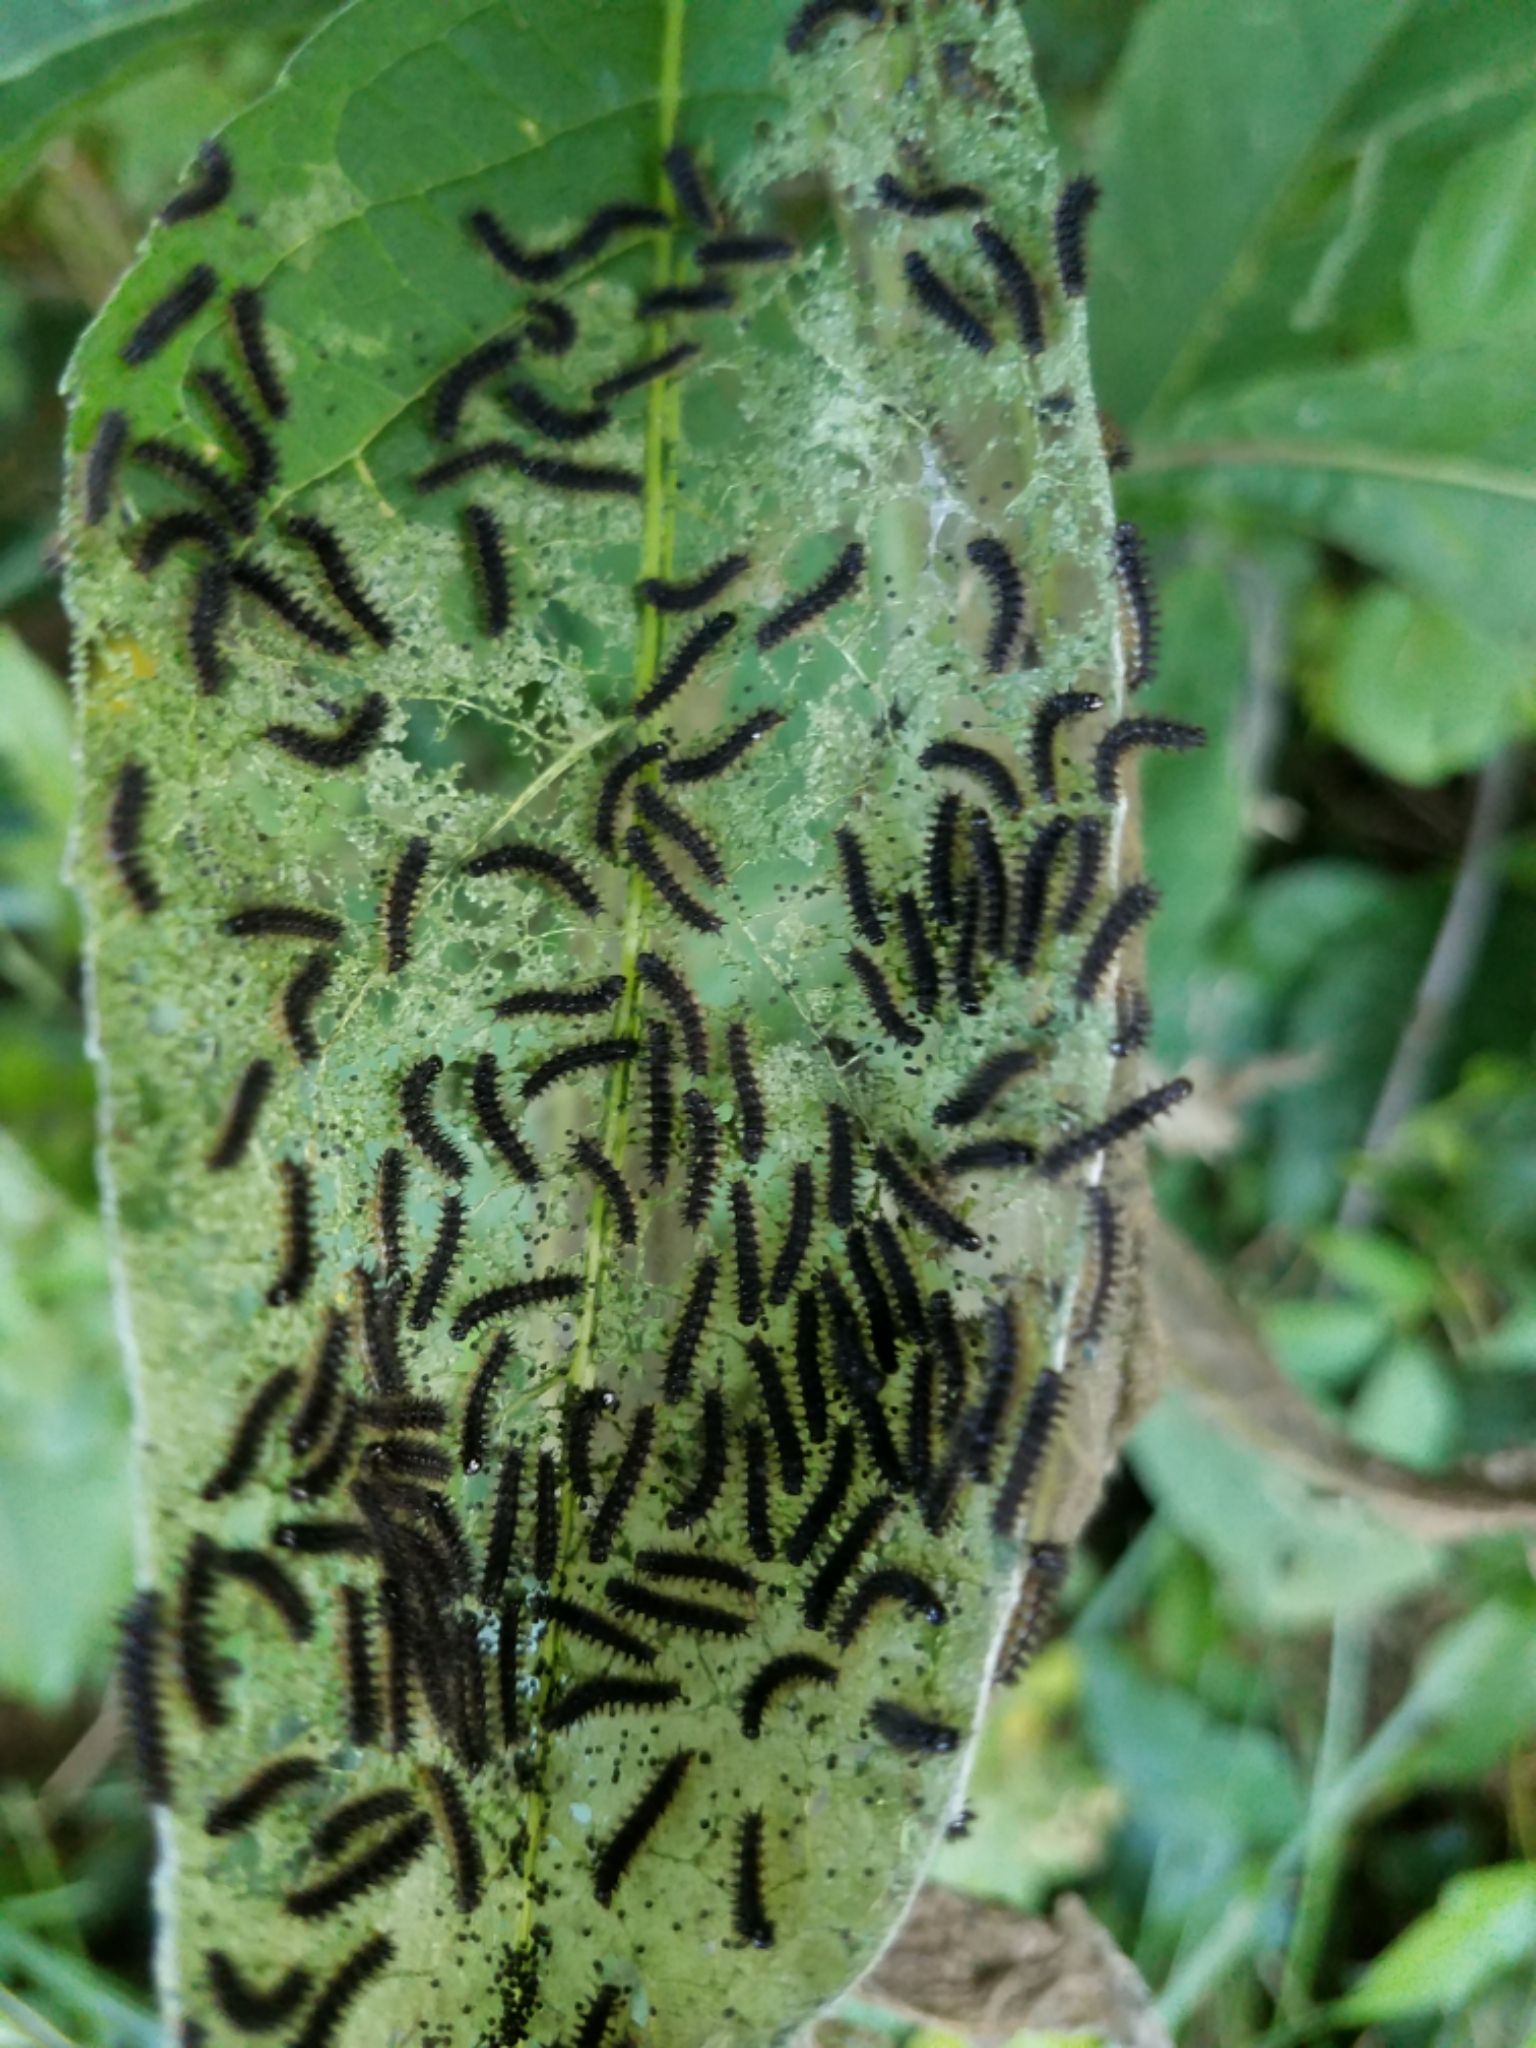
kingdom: Animalia
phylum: Arthropoda
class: Insecta
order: Lepidoptera
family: Nymphalidae
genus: Chlosyne
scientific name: Chlosyne nycteis
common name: Silvery checkerspot
